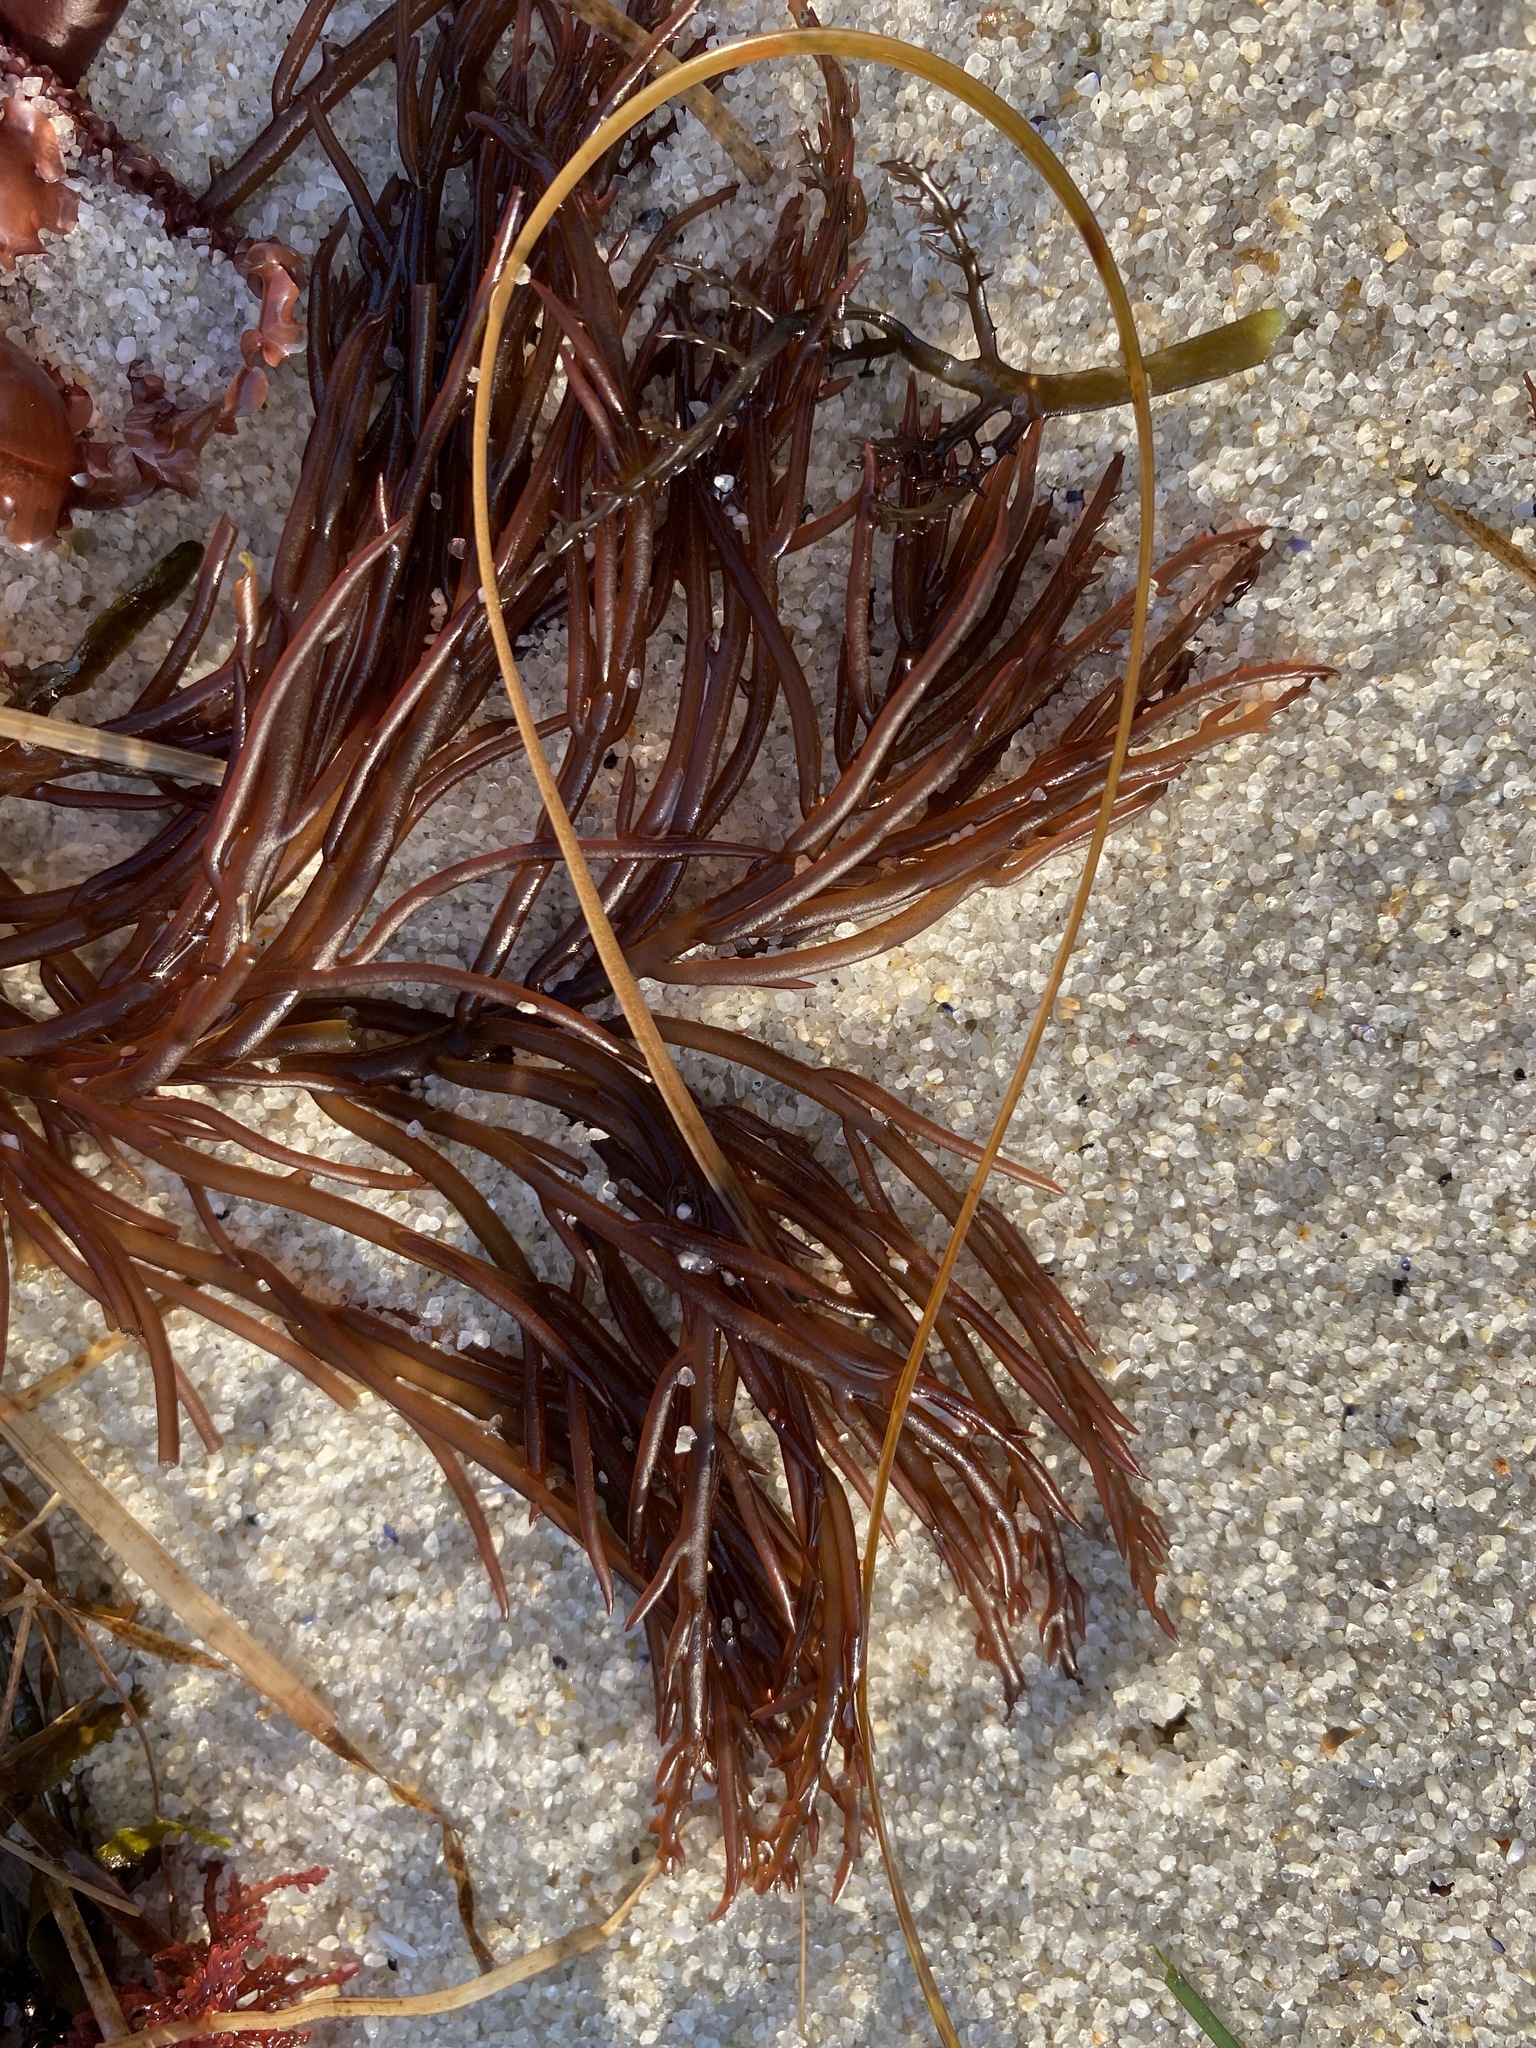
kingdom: Plantae
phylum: Rhodophyta
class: Florideophyceae
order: Gigartinales
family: Solieriaceae
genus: Sarcodiotheca
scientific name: Sarcodiotheca gaudichaudii
